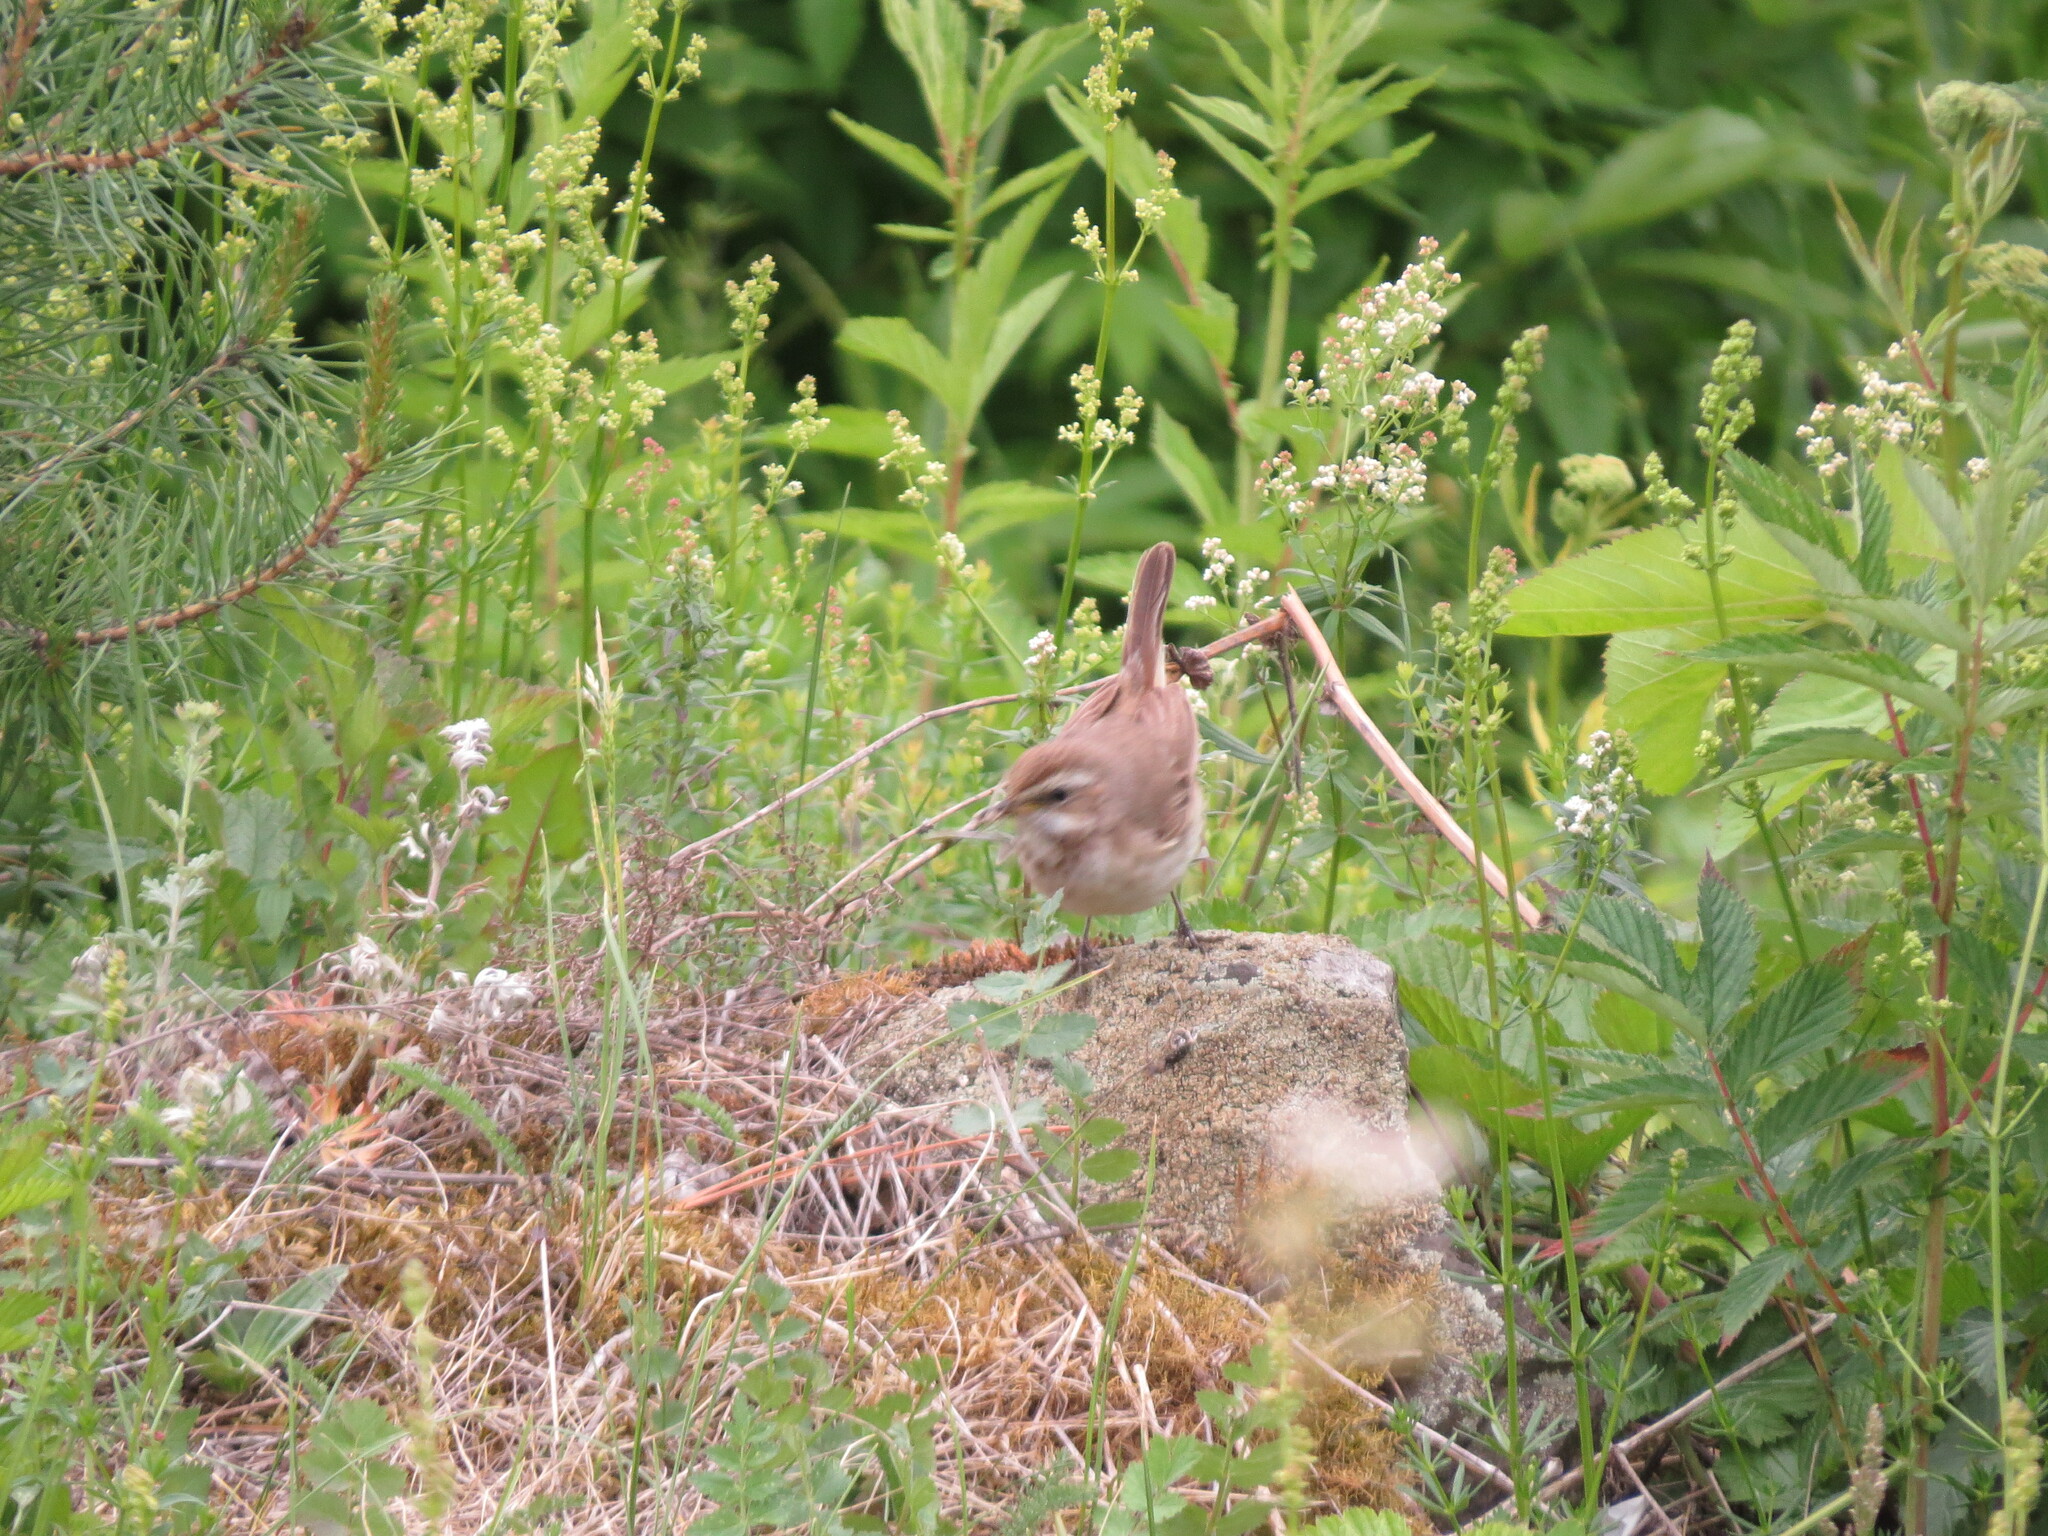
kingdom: Animalia
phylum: Chordata
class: Aves
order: Passeriformes
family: Muscicapidae
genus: Luscinia
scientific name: Luscinia svecica
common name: Bluethroat
